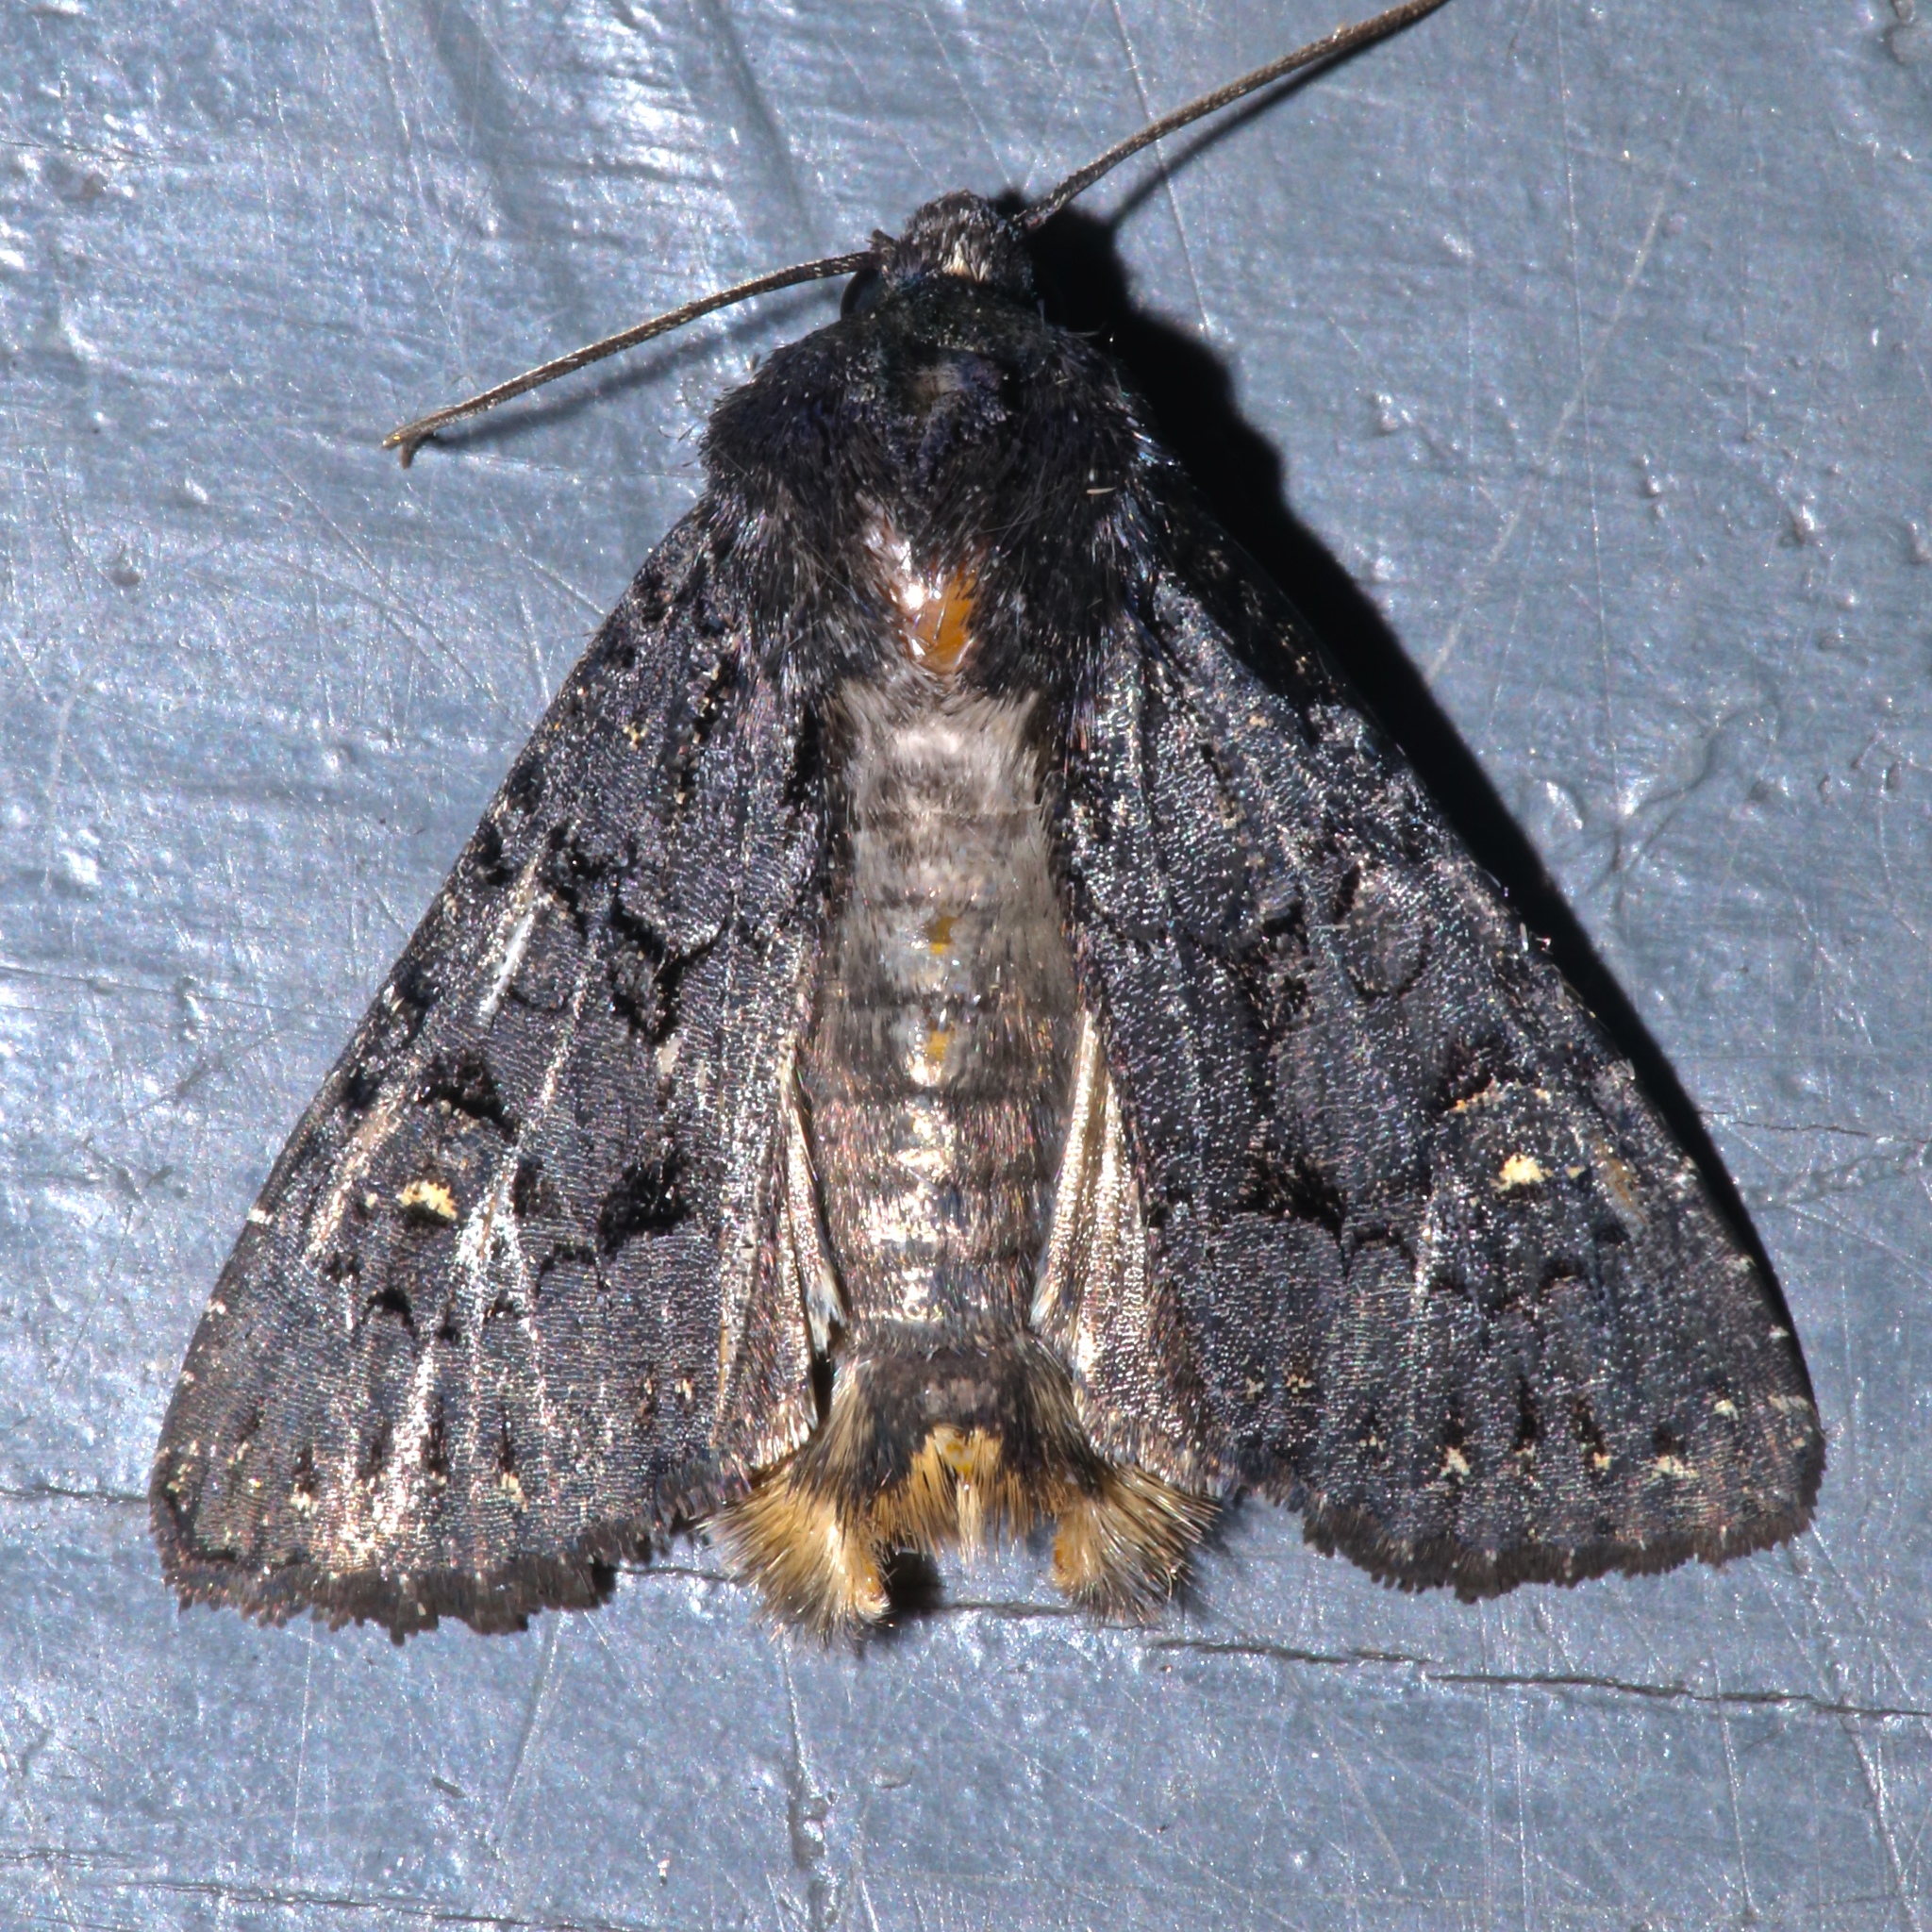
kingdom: Animalia
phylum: Arthropoda
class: Insecta
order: Lepidoptera
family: Noctuidae
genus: Apamea
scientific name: Apamea impulsa
